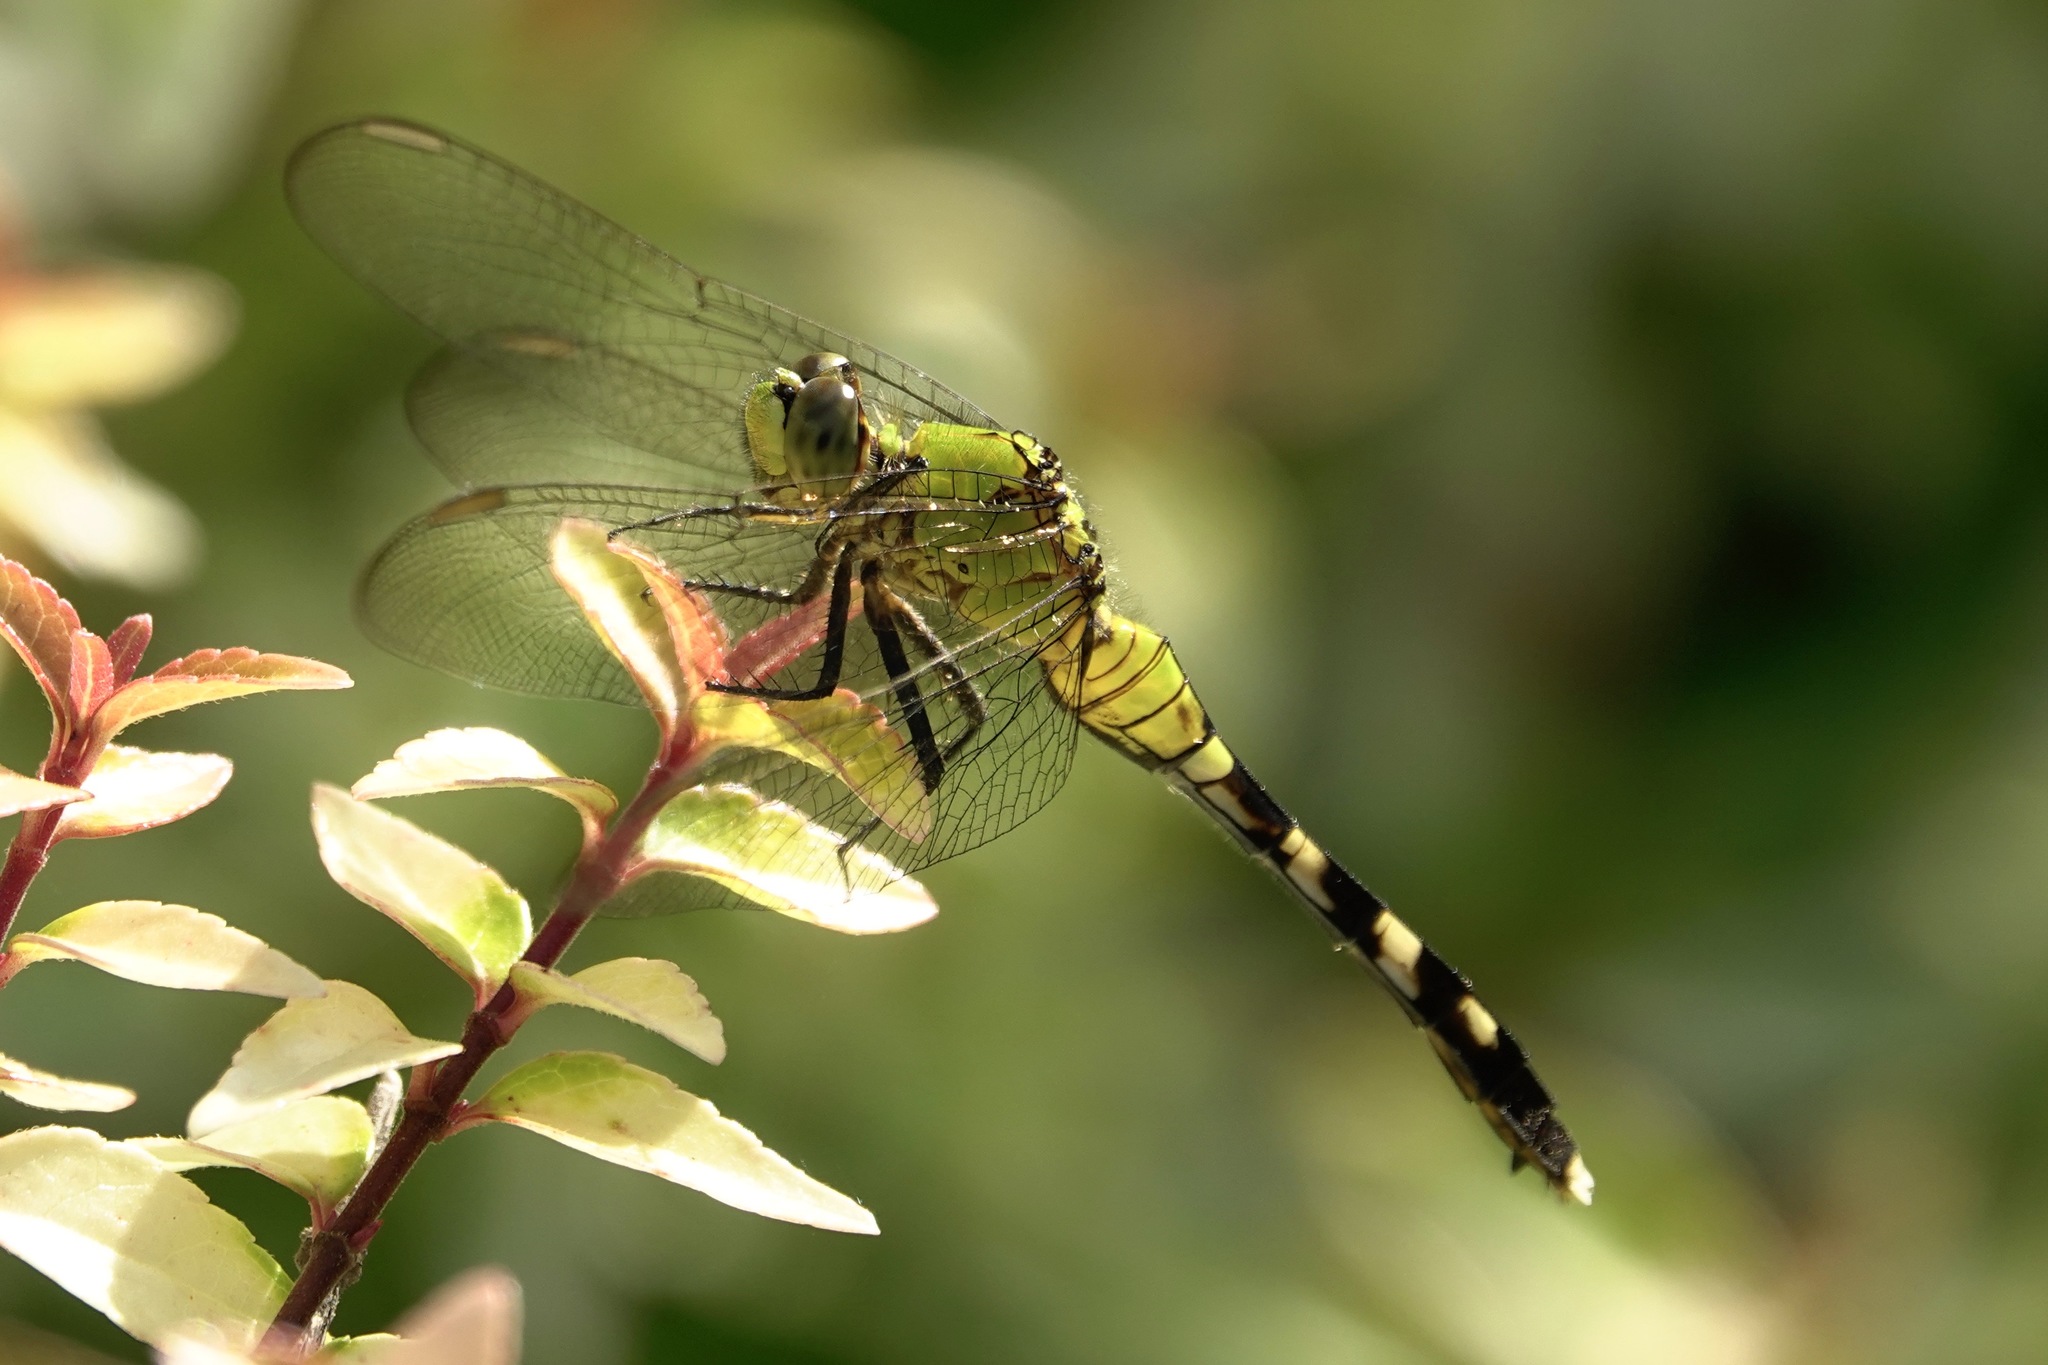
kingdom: Animalia
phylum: Arthropoda
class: Insecta
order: Odonata
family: Libellulidae
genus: Erythemis
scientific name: Erythemis simplicicollis
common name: Eastern pondhawk
